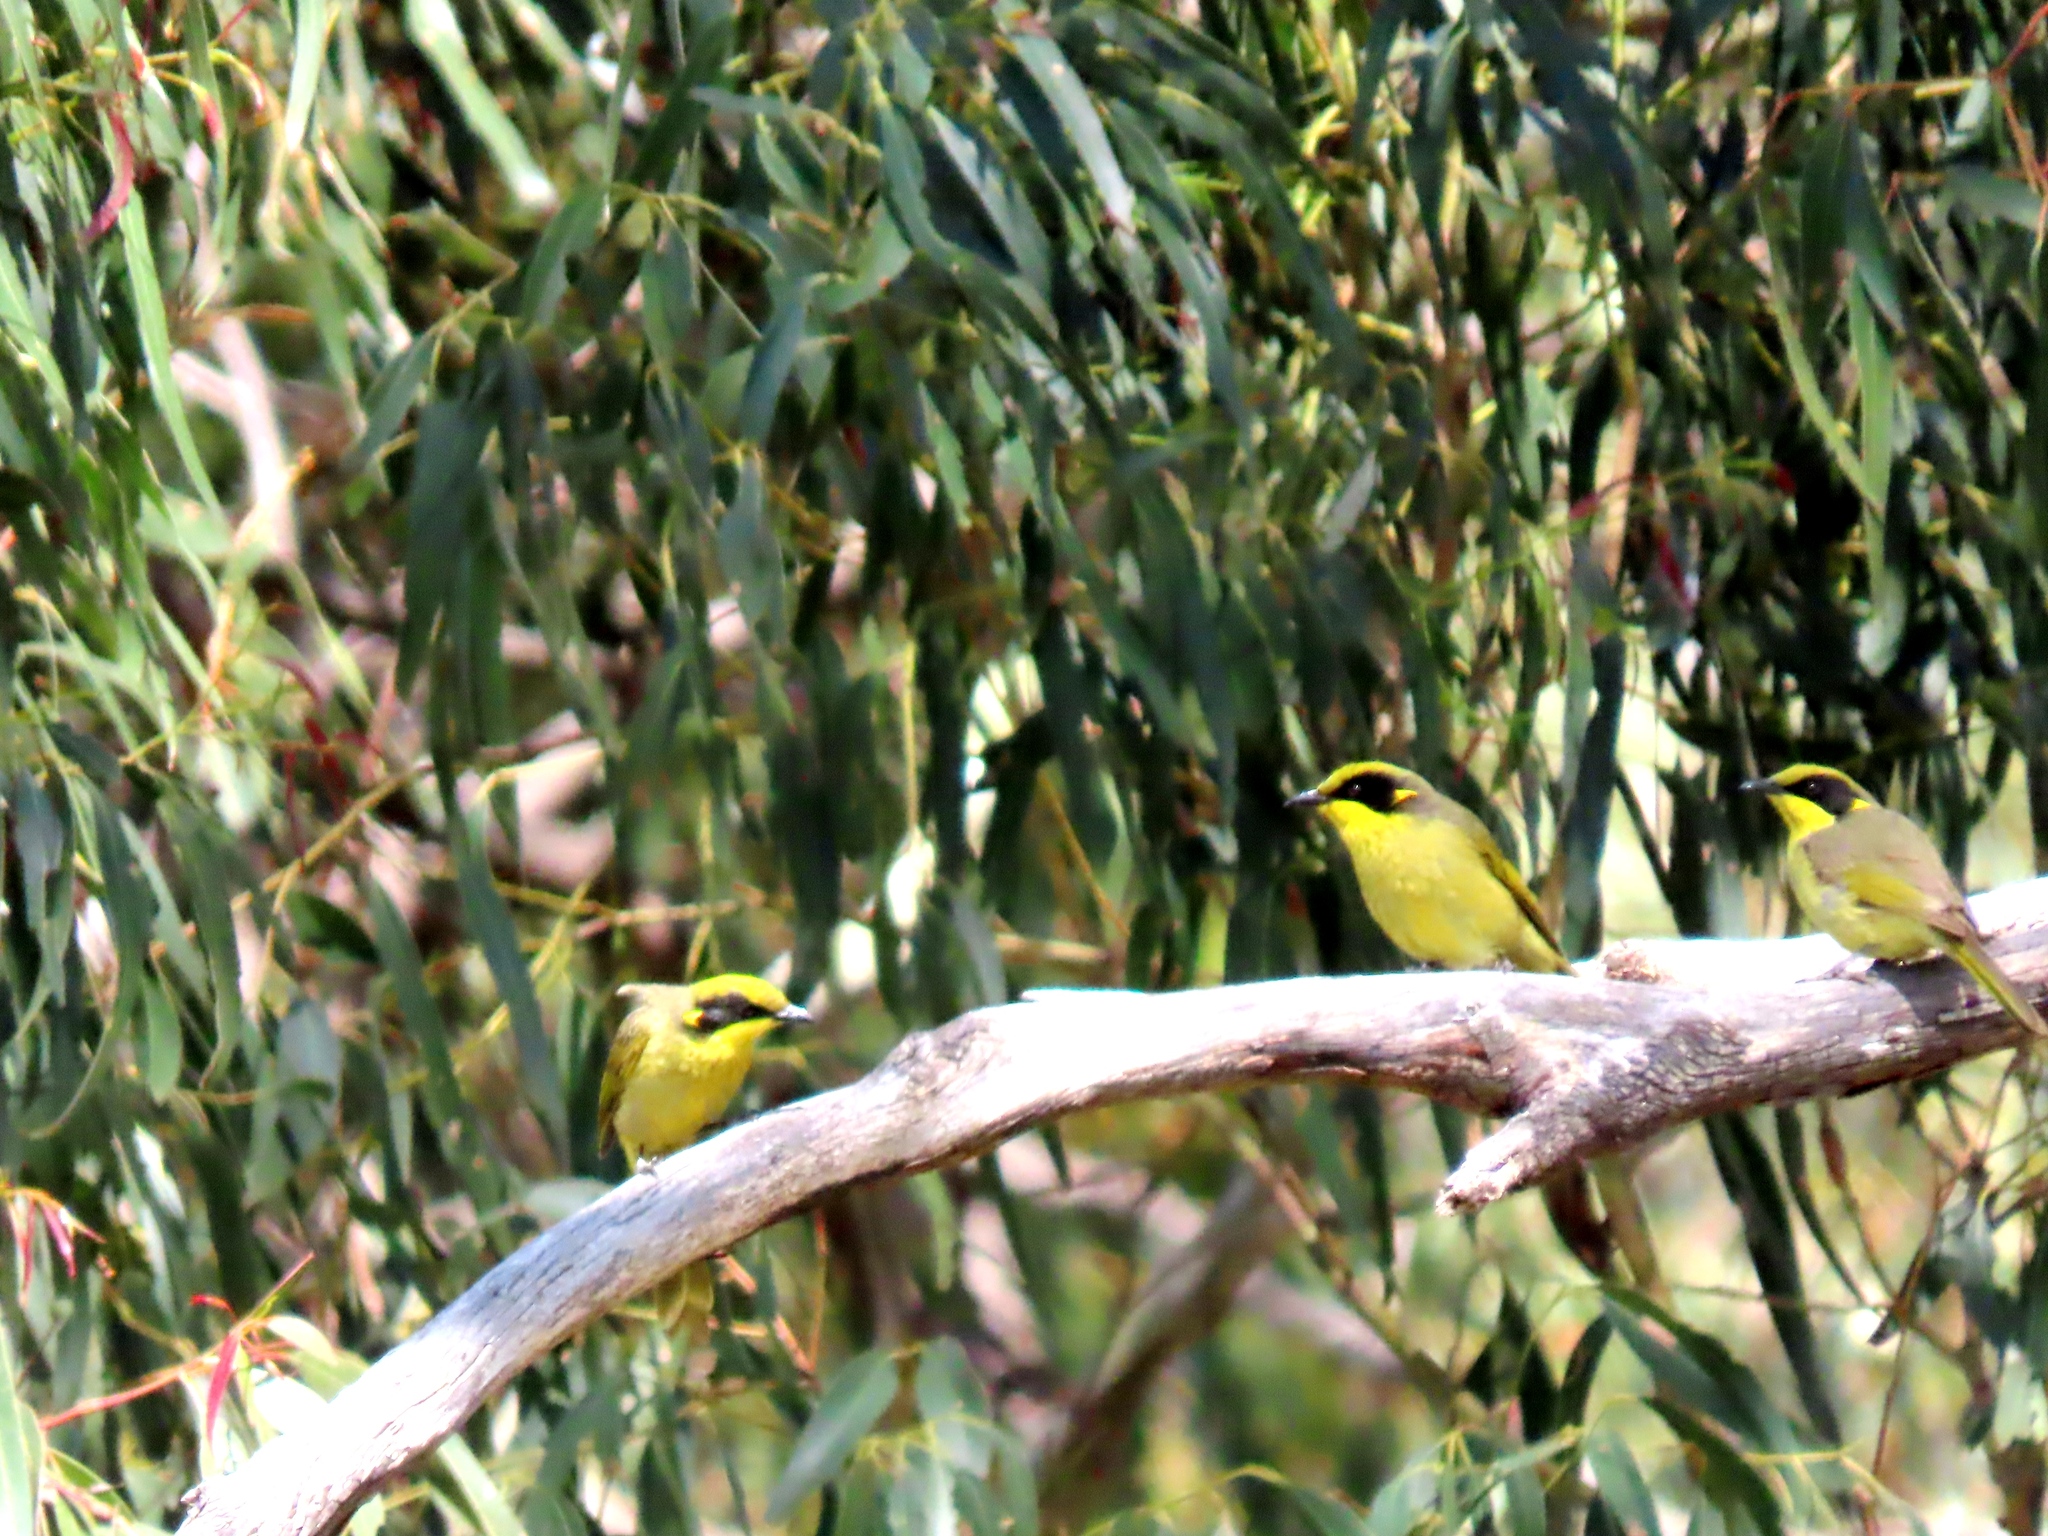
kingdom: Animalia
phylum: Chordata
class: Aves
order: Passeriformes
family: Meliphagidae
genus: Lichenostomus
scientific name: Lichenostomus melanops
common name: Yellow-tufted honeyeater
